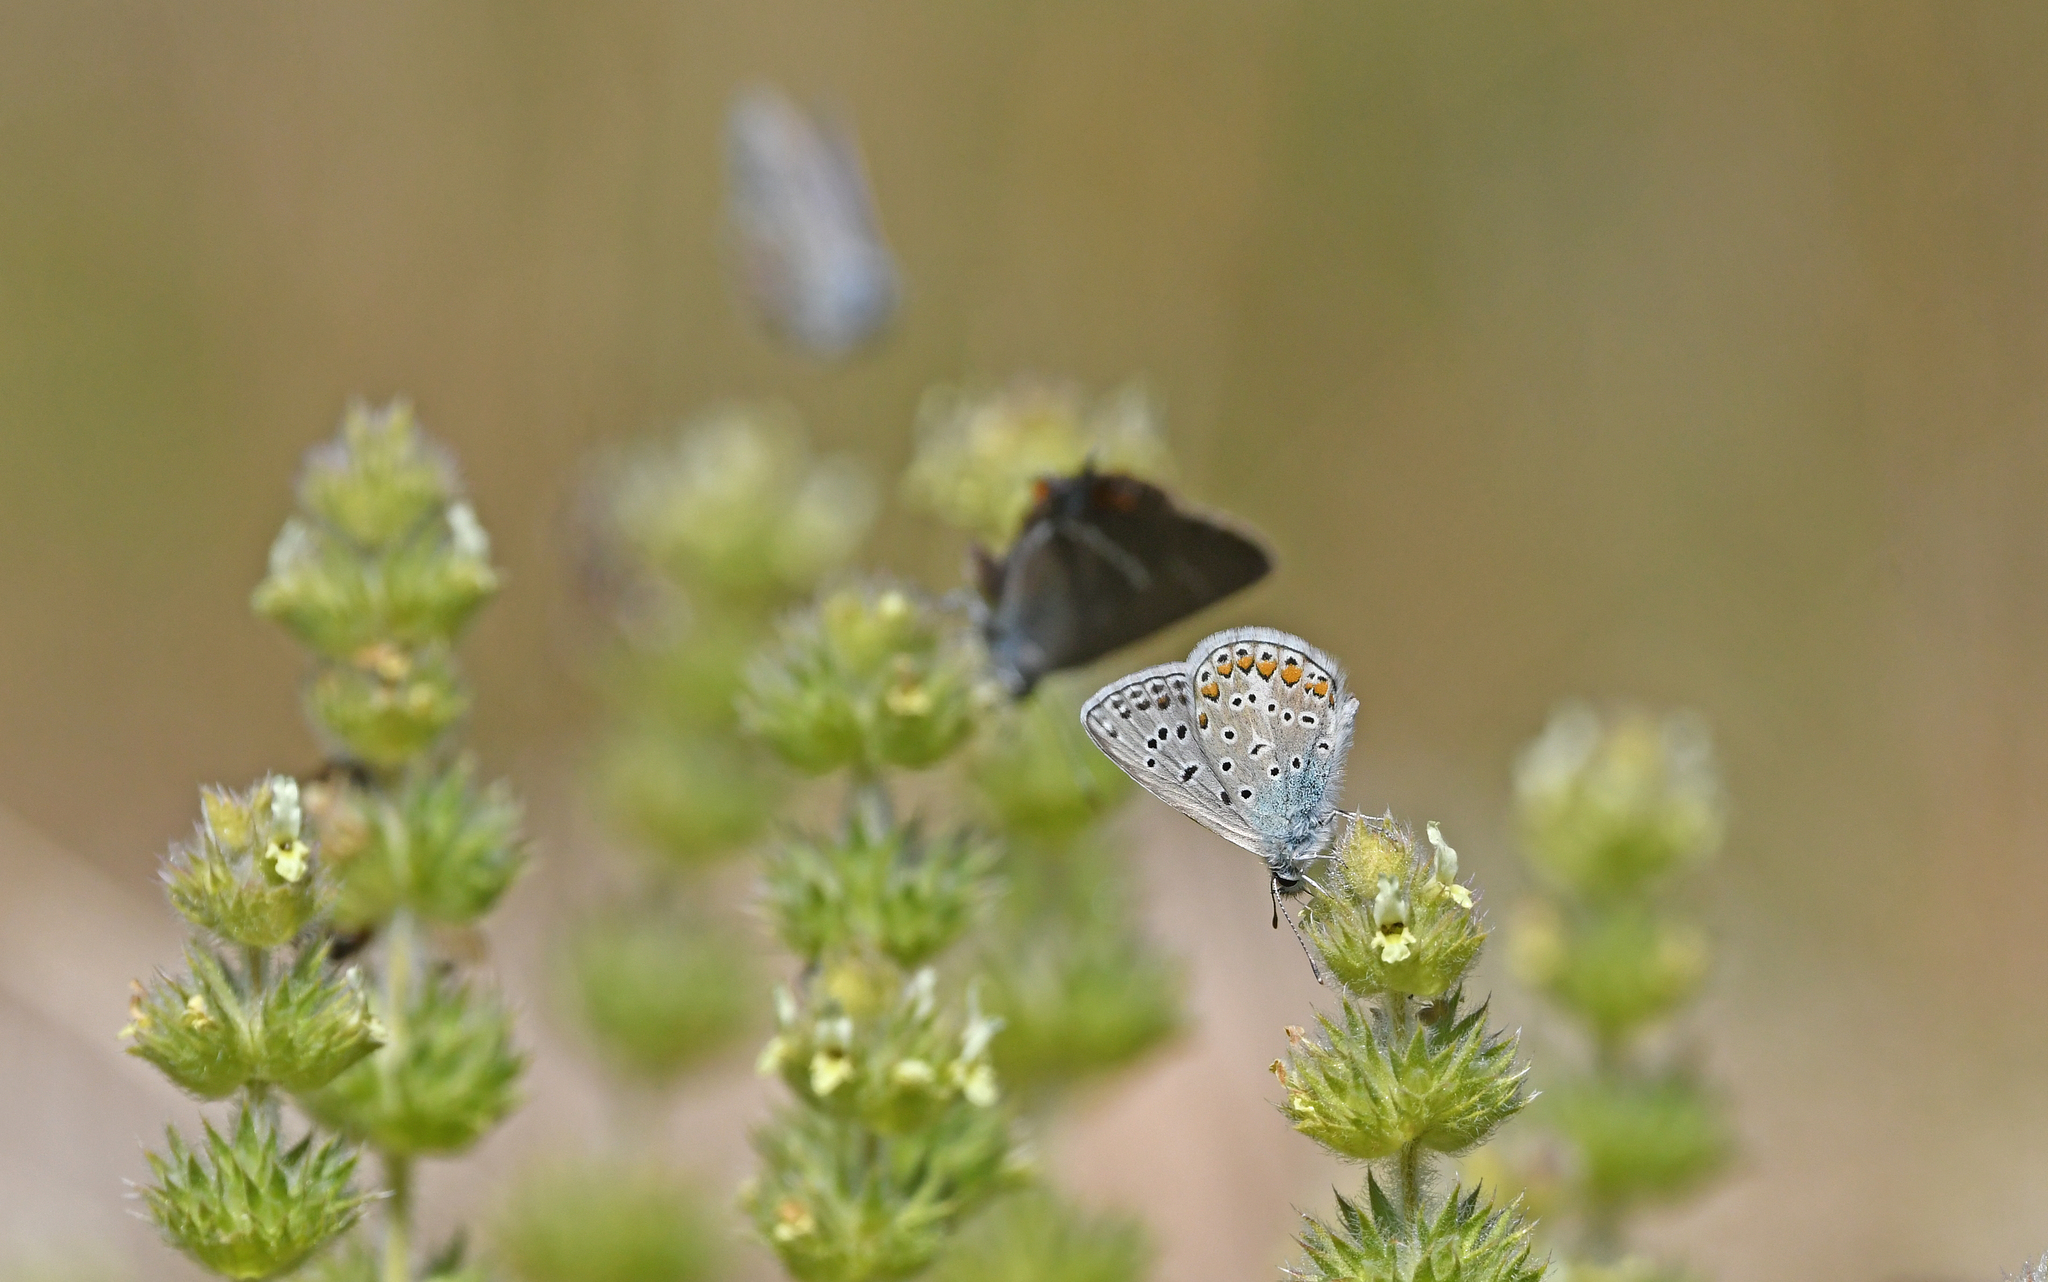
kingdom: Animalia
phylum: Arthropoda
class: Insecta
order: Lepidoptera
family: Lycaenidae
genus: Polyommatus
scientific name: Polyommatus icarus
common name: Common blue
